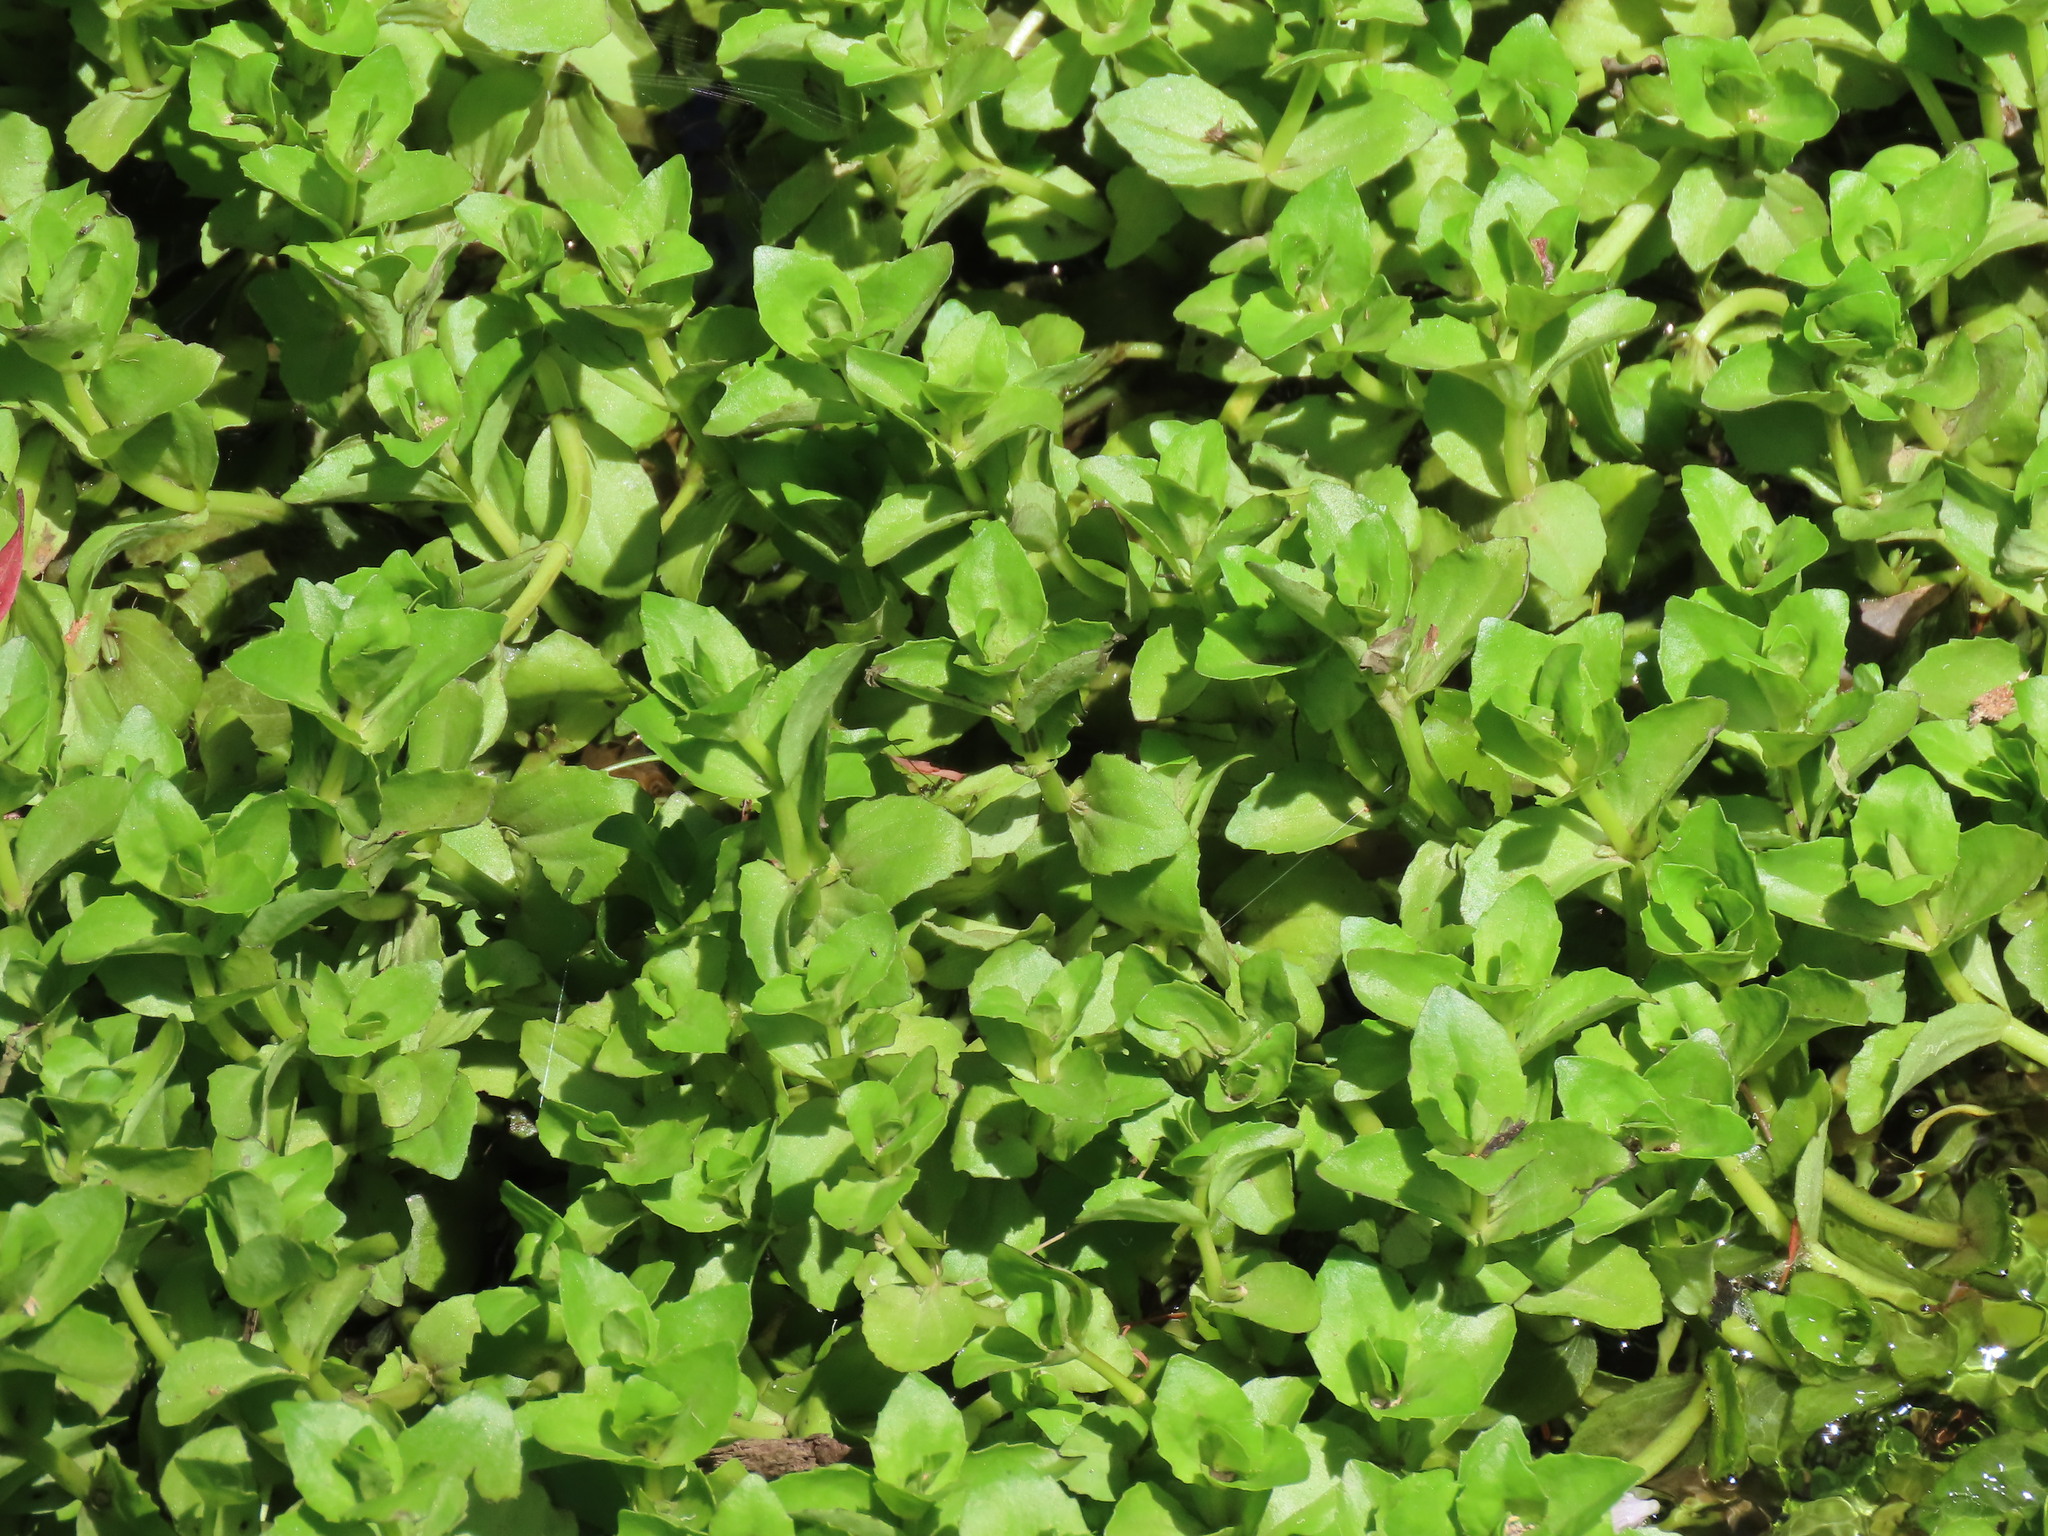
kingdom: Plantae
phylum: Tracheophyta
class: Magnoliopsida
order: Lamiales
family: Plantaginaceae
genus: Gratiola
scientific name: Gratiola peruviana
